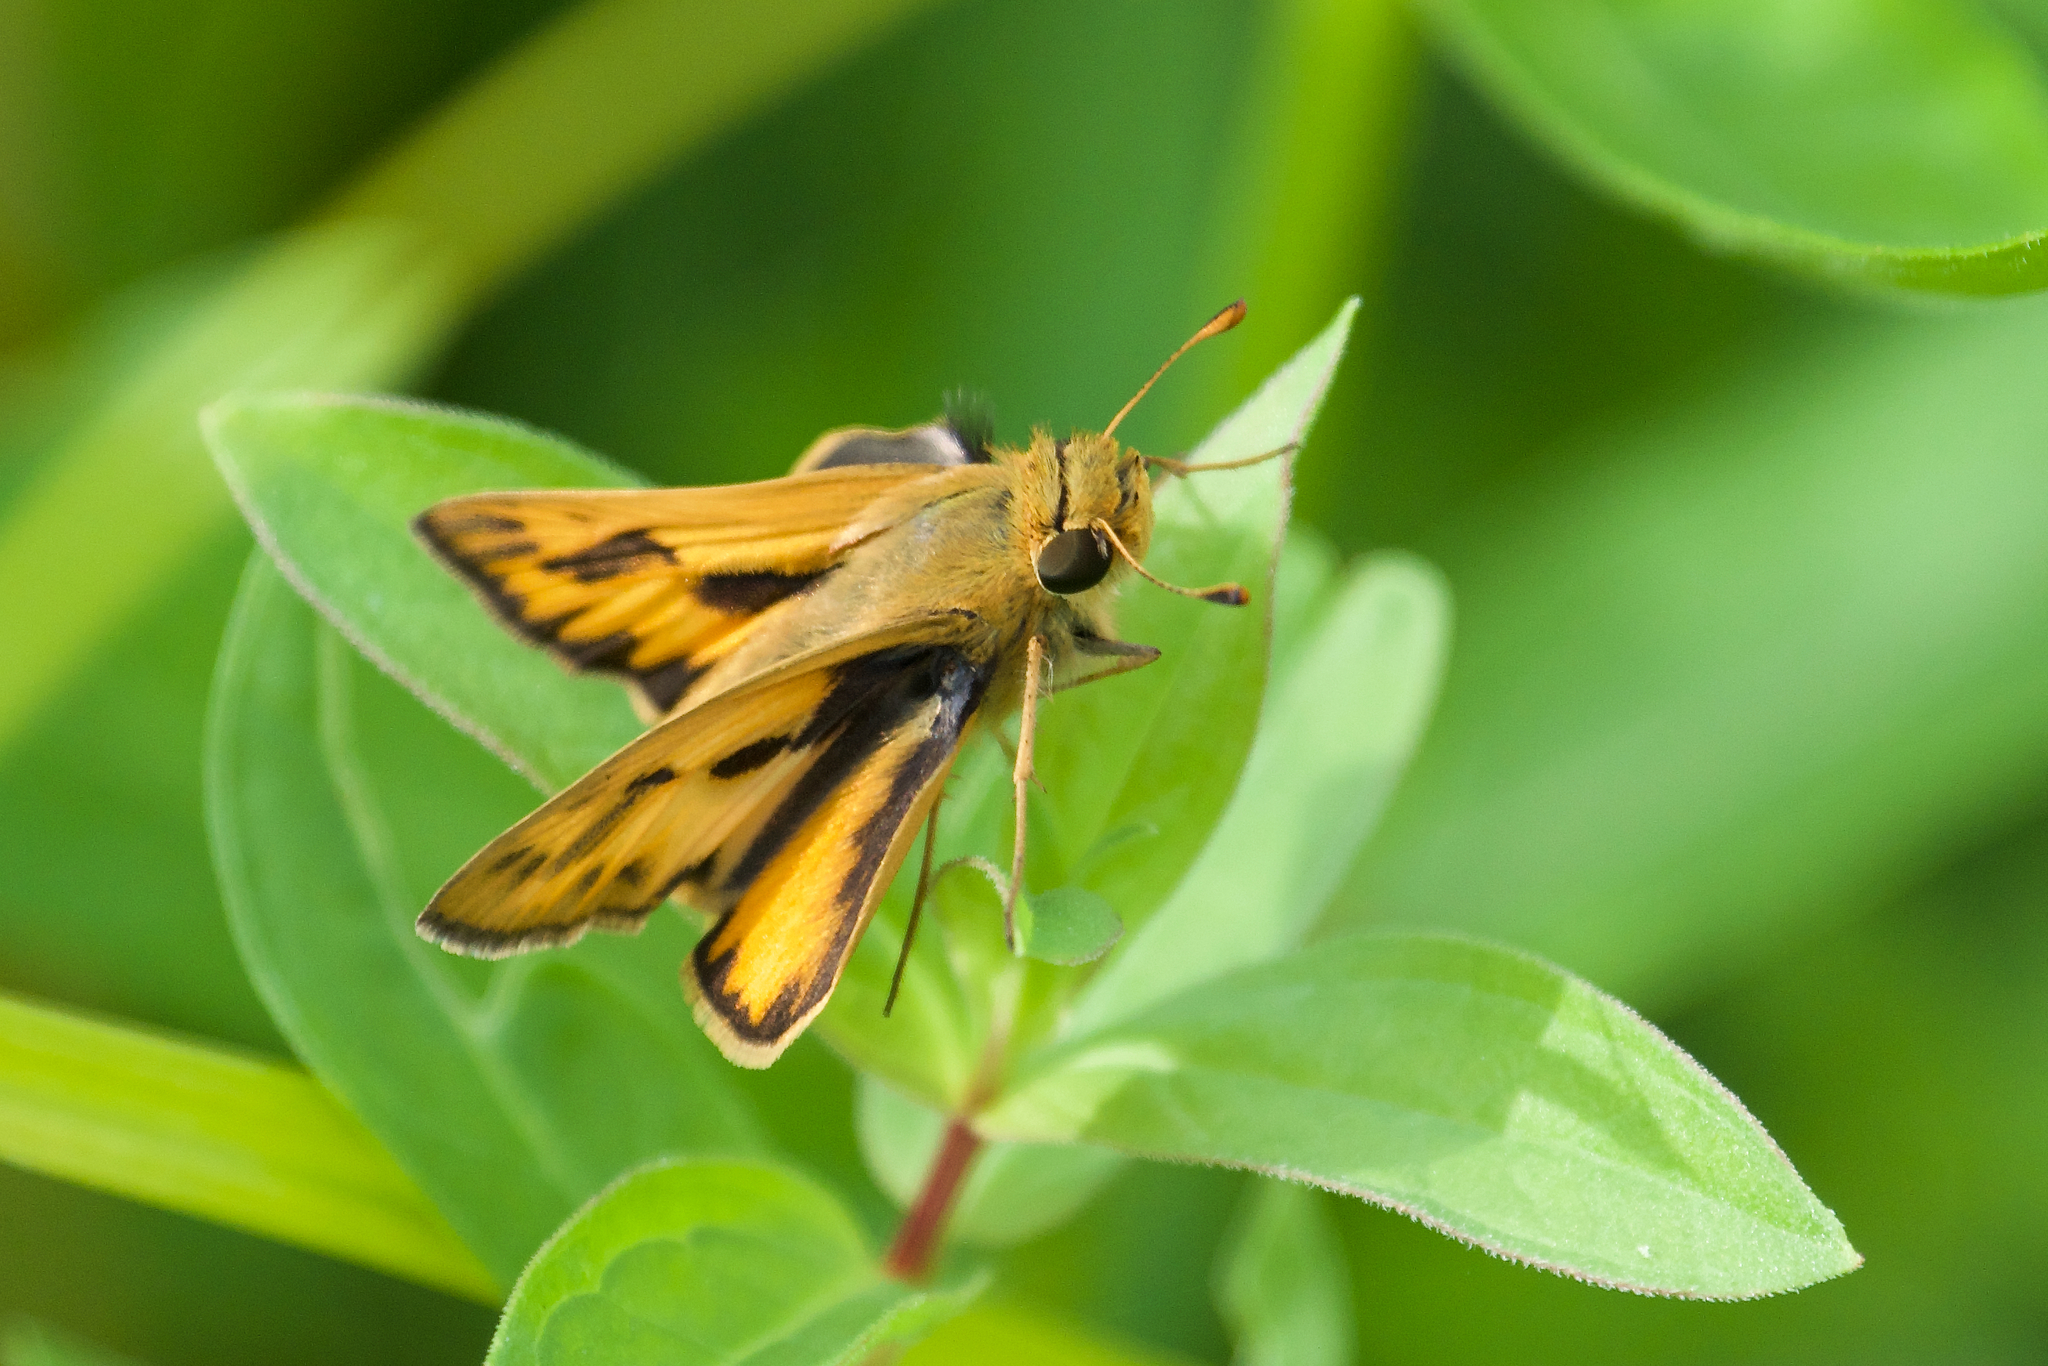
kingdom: Animalia
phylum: Arthropoda
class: Insecta
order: Lepidoptera
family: Hesperiidae
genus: Hylephila
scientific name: Hylephila phyleus
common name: Fiery skipper
